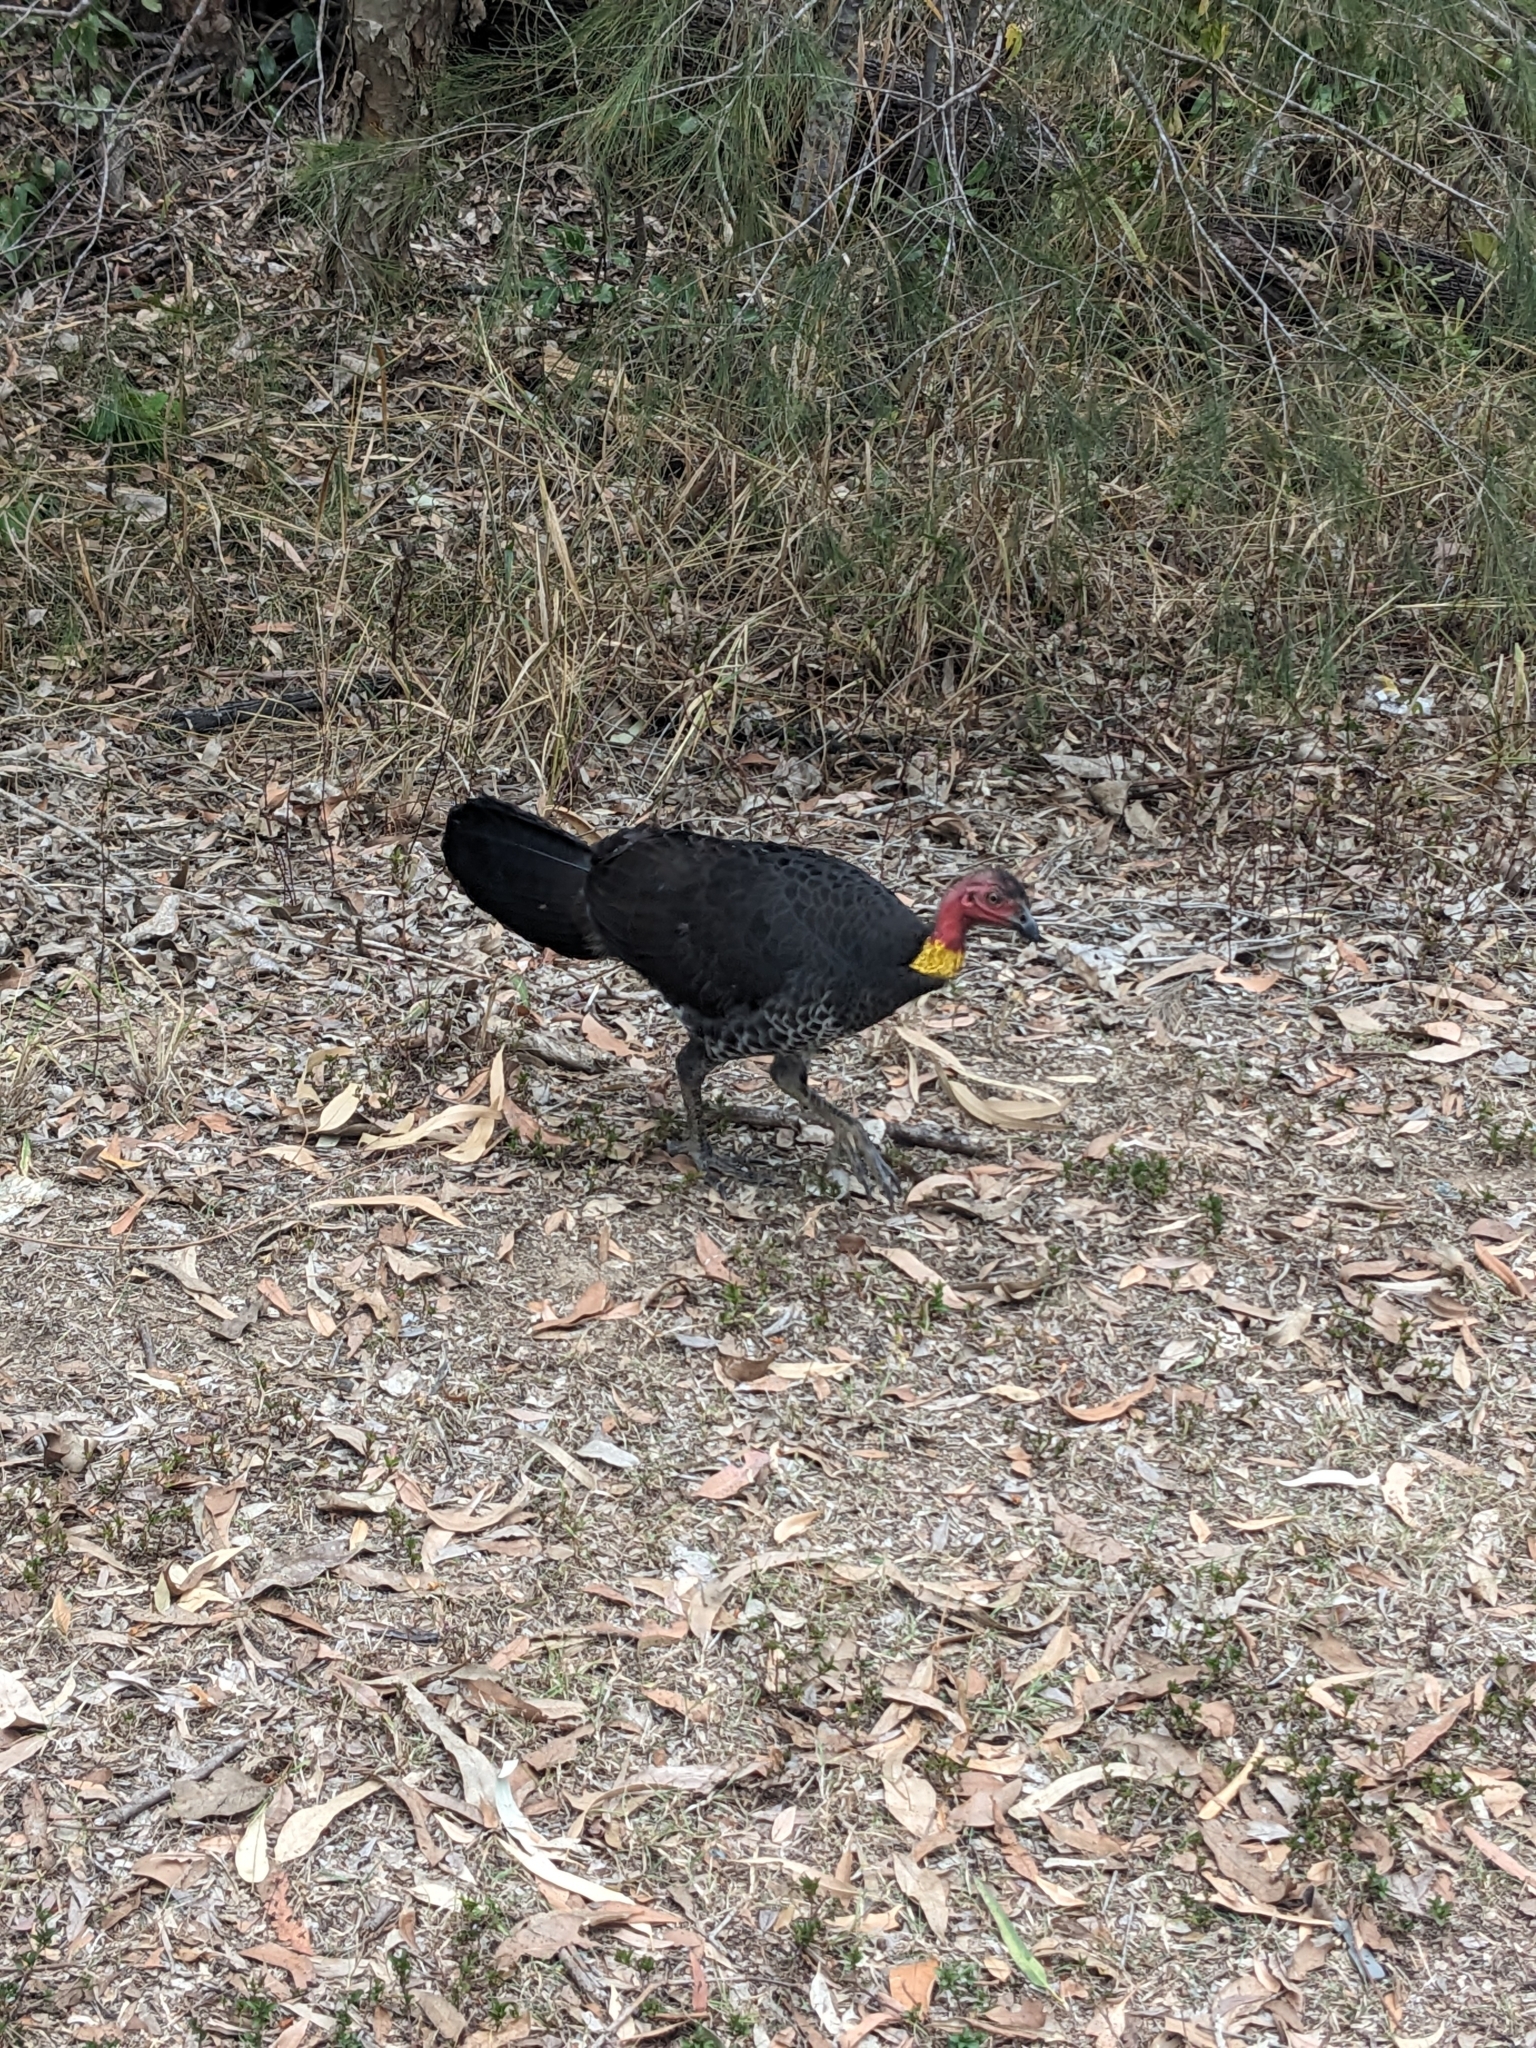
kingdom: Animalia
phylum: Chordata
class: Aves
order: Galliformes
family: Megapodiidae
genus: Alectura
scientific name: Alectura lathami
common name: Australian brushturkey
